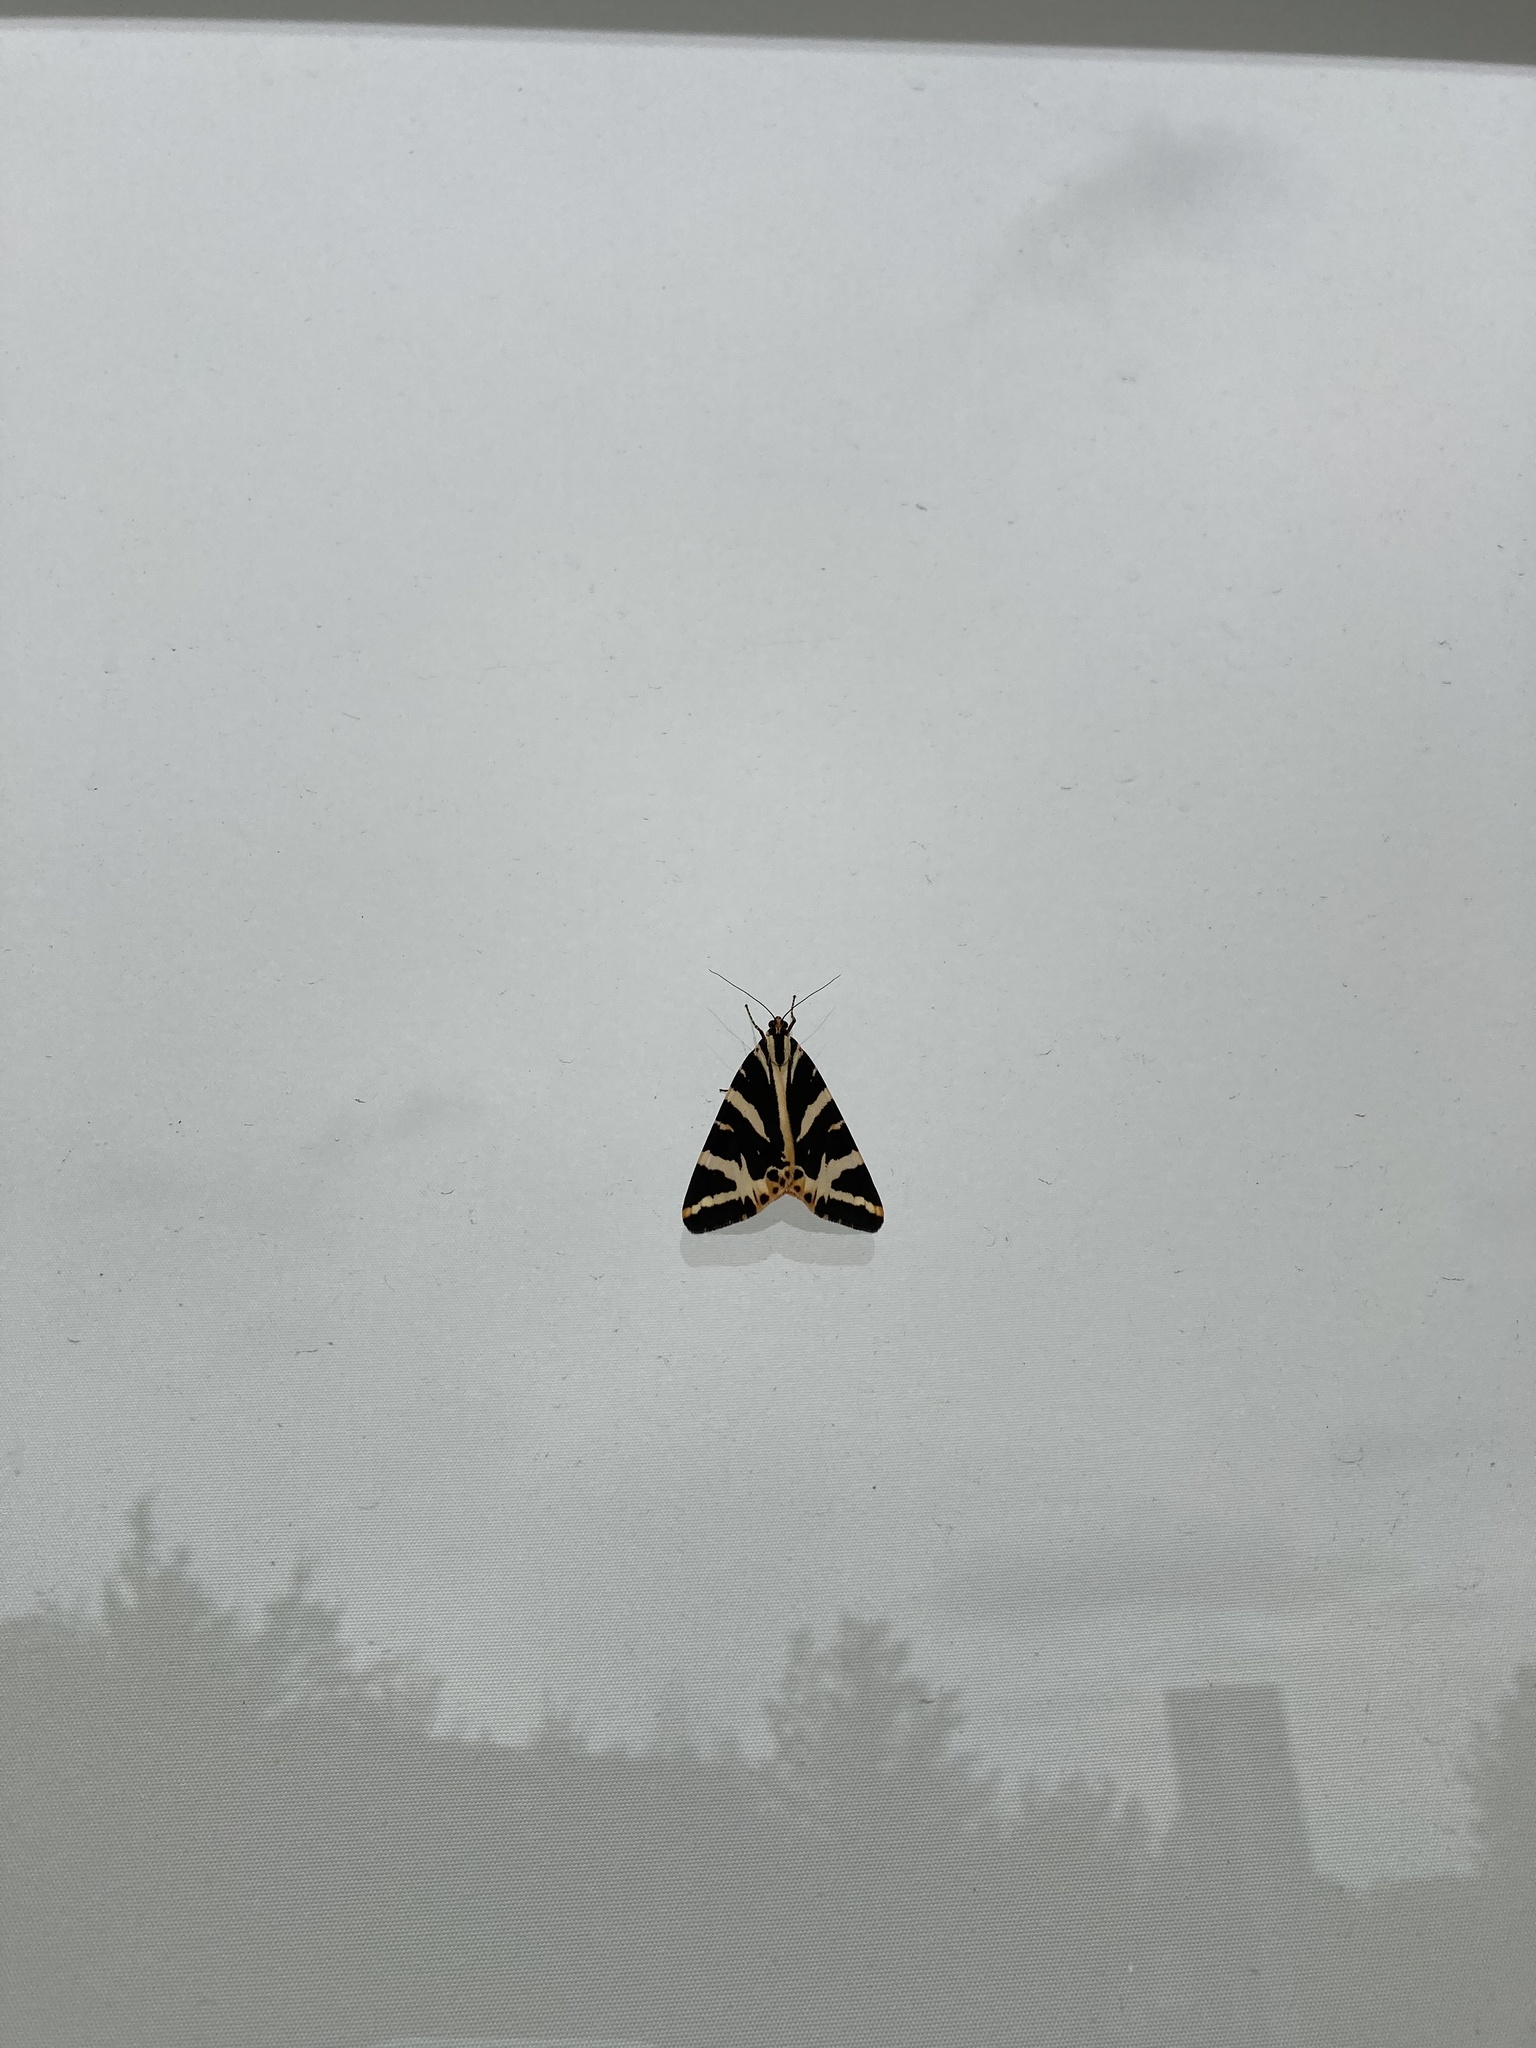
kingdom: Animalia
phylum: Arthropoda
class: Insecta
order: Lepidoptera
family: Erebidae
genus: Euplagia
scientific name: Euplagia quadripunctaria
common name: Jersey tiger
